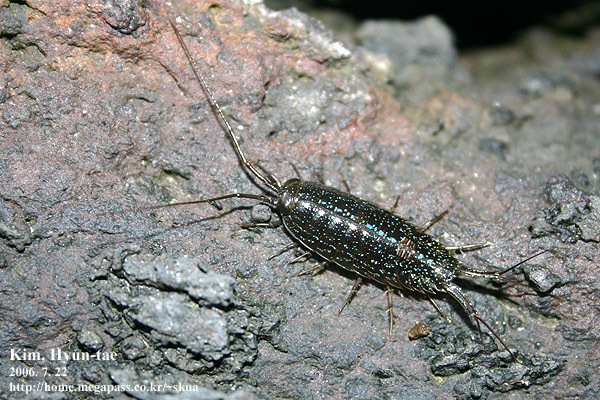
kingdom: Animalia
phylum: Arthropoda
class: Malacostraca
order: Isopoda
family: Ligiidae
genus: Ligia
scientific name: Ligia exotica
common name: Wharf roach
